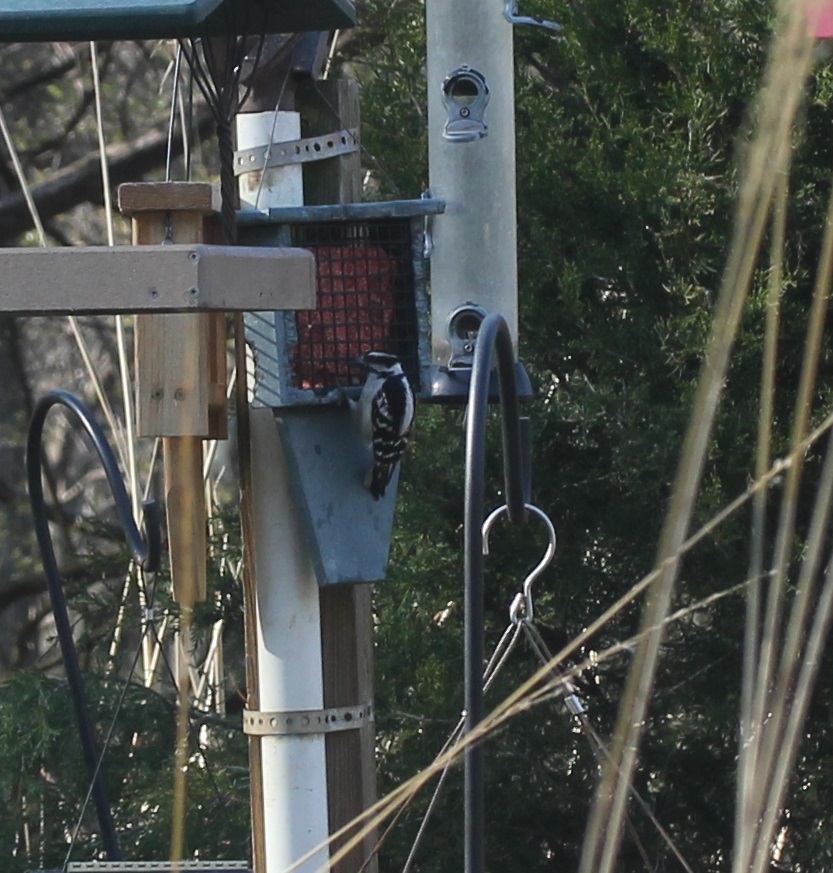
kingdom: Animalia
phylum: Chordata
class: Aves
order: Piciformes
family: Picidae
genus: Dryobates
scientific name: Dryobates pubescens
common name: Downy woodpecker
